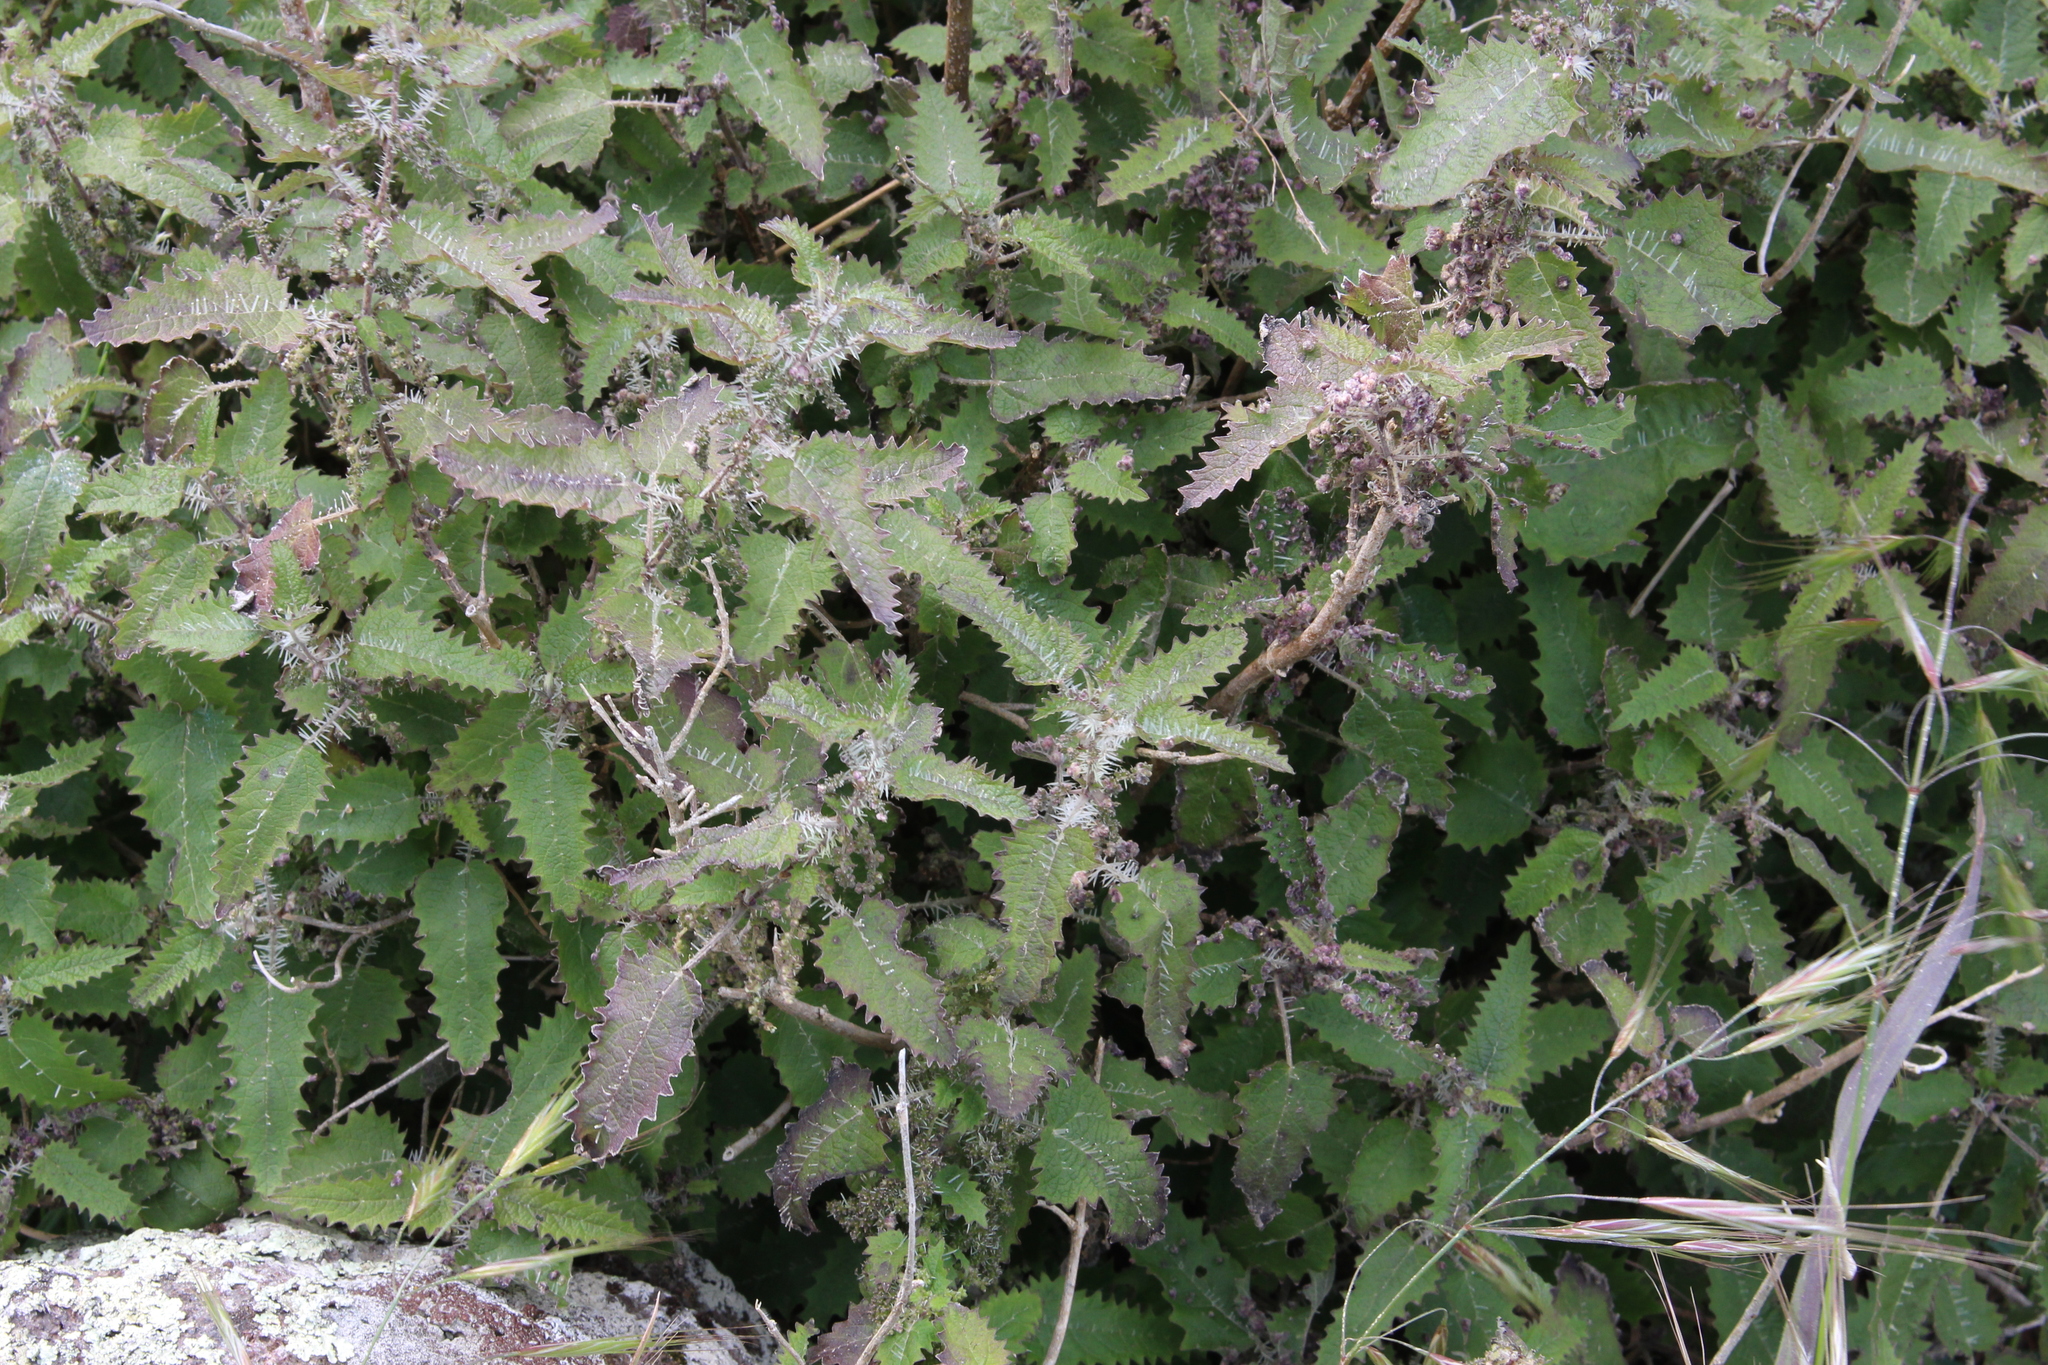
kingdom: Plantae
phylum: Tracheophyta
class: Magnoliopsida
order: Rosales
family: Urticaceae
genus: Urtica
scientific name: Urtica ferox
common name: Tree nettle
